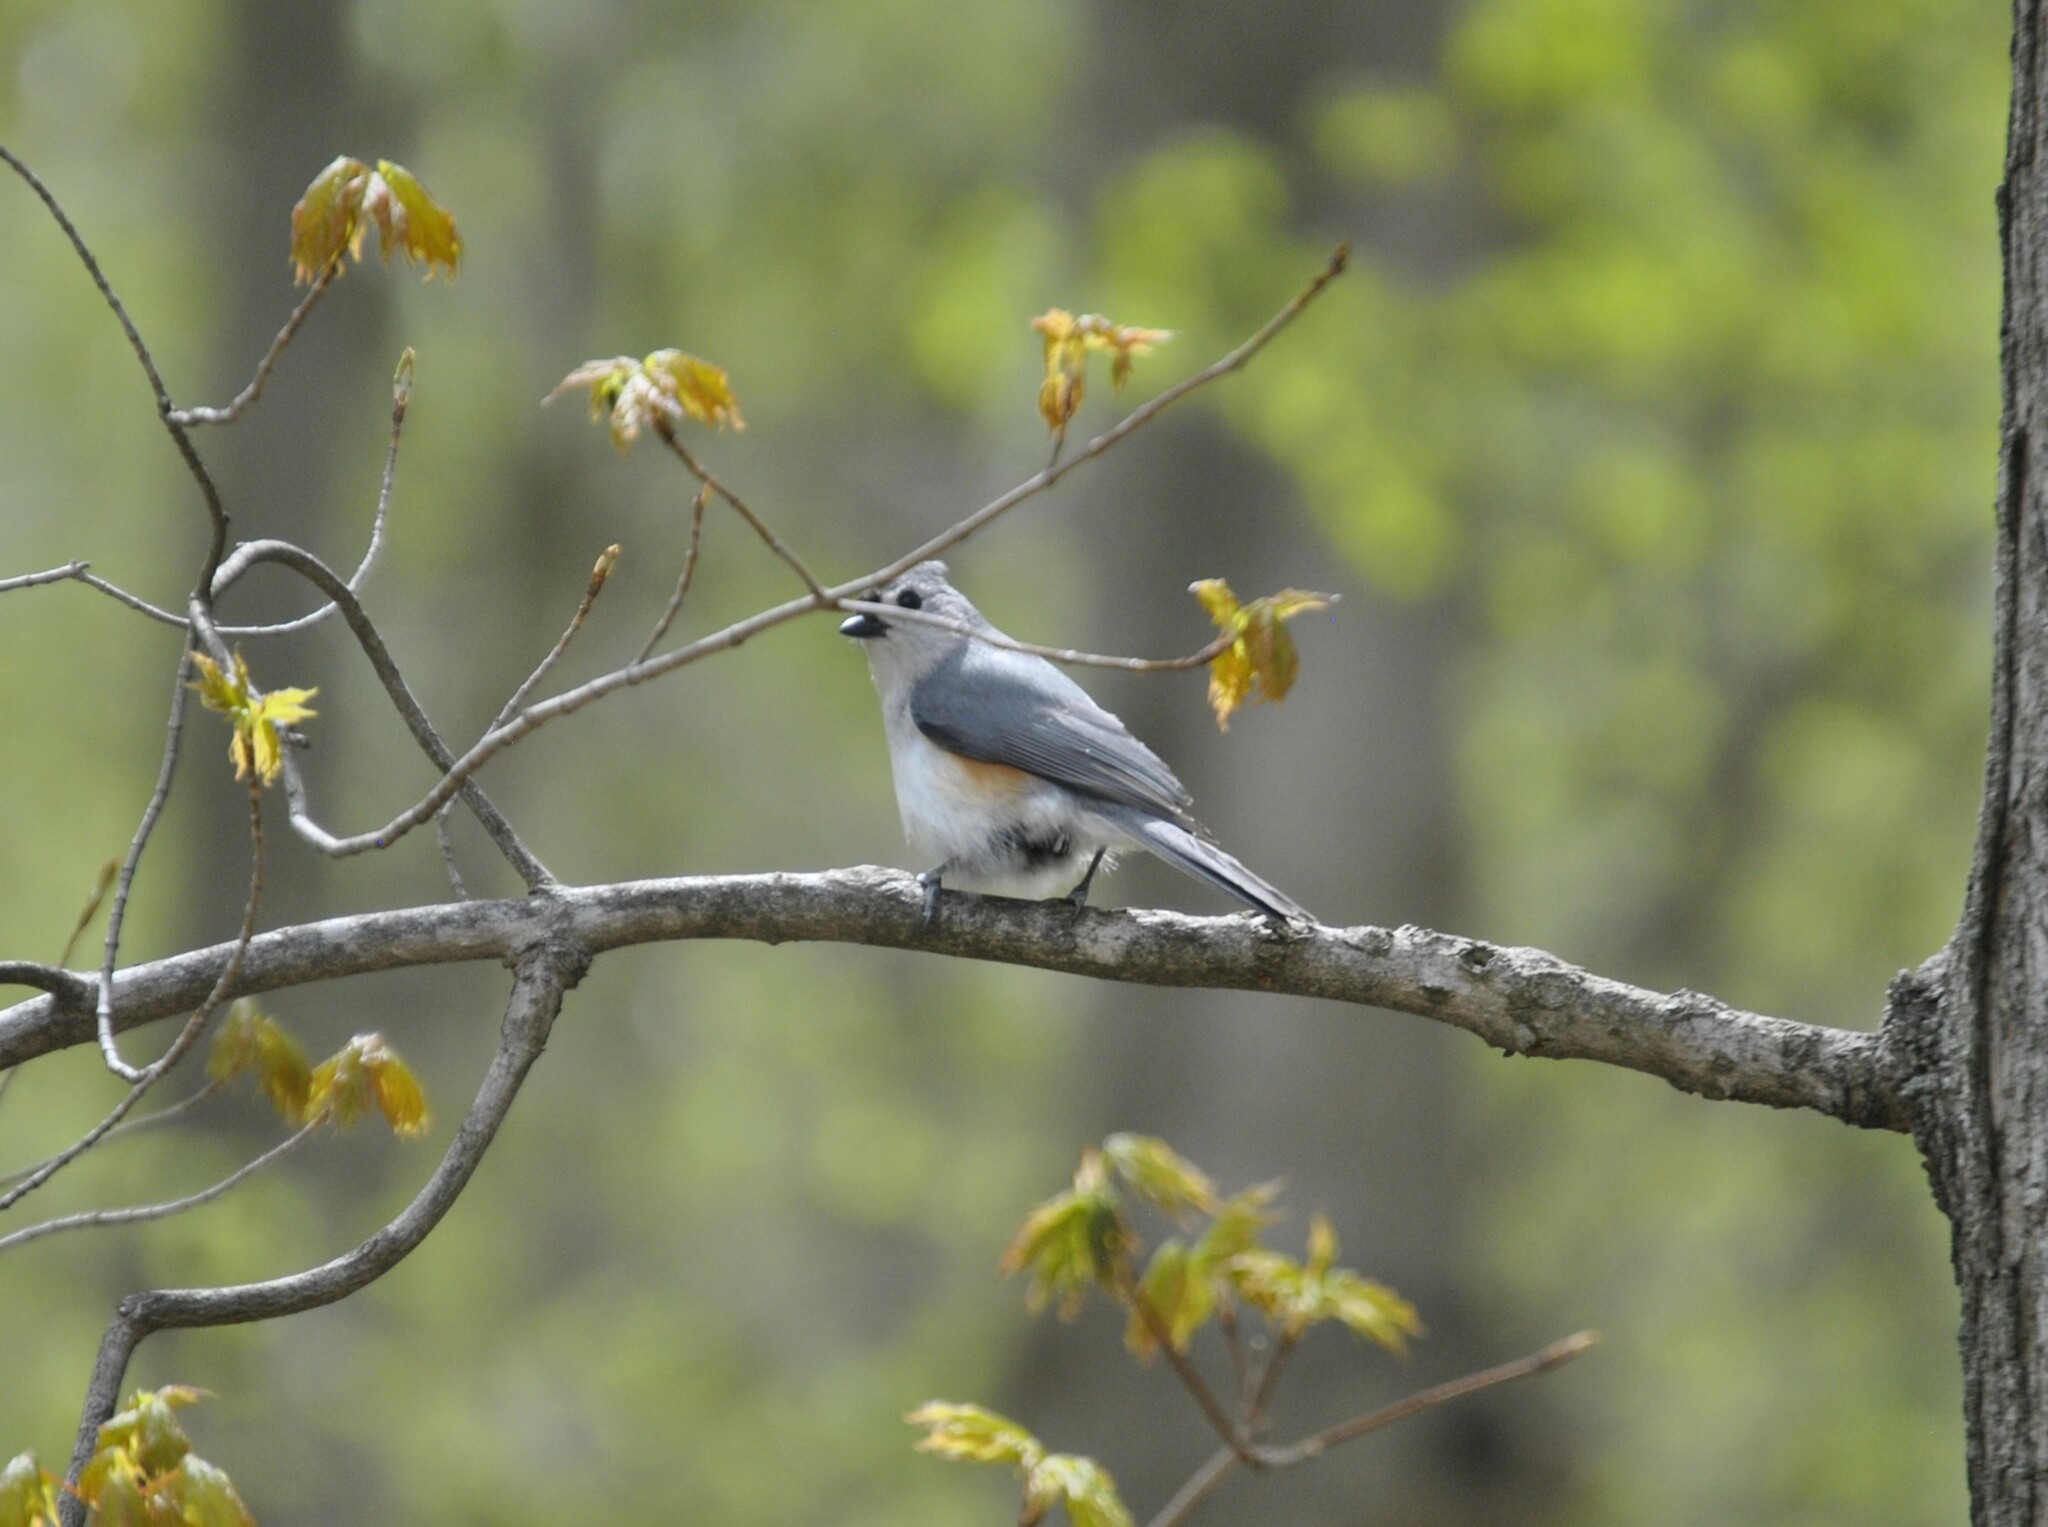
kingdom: Animalia
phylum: Chordata
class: Aves
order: Passeriformes
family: Paridae
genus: Baeolophus
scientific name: Baeolophus bicolor
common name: Tufted titmouse
